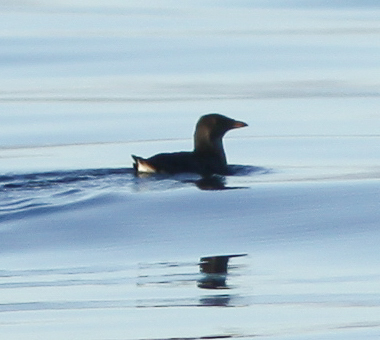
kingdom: Animalia
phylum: Chordata
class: Aves
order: Charadriiformes
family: Alcidae
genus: Cerorhinca
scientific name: Cerorhinca monocerata
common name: Rhinoceros auklet
